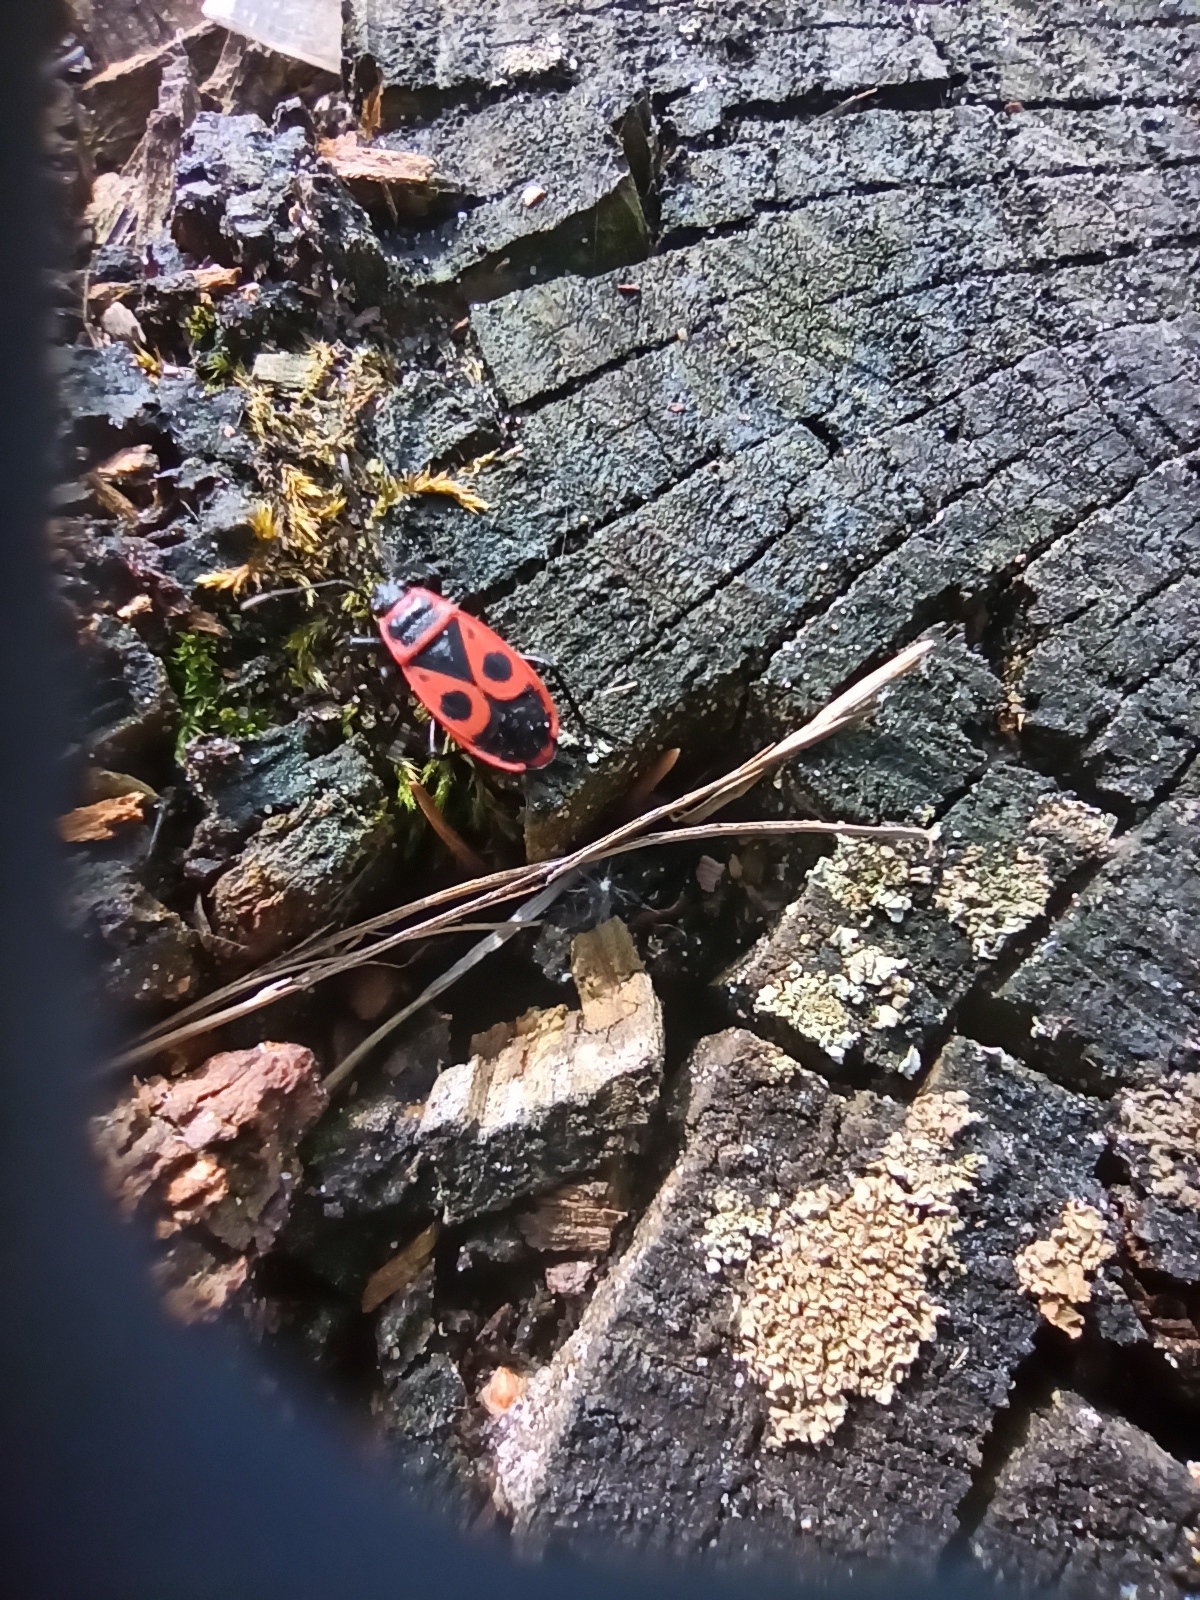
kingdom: Animalia
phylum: Arthropoda
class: Insecta
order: Hemiptera
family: Pyrrhocoridae
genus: Pyrrhocoris
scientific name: Pyrrhocoris apterus
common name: Firebug
